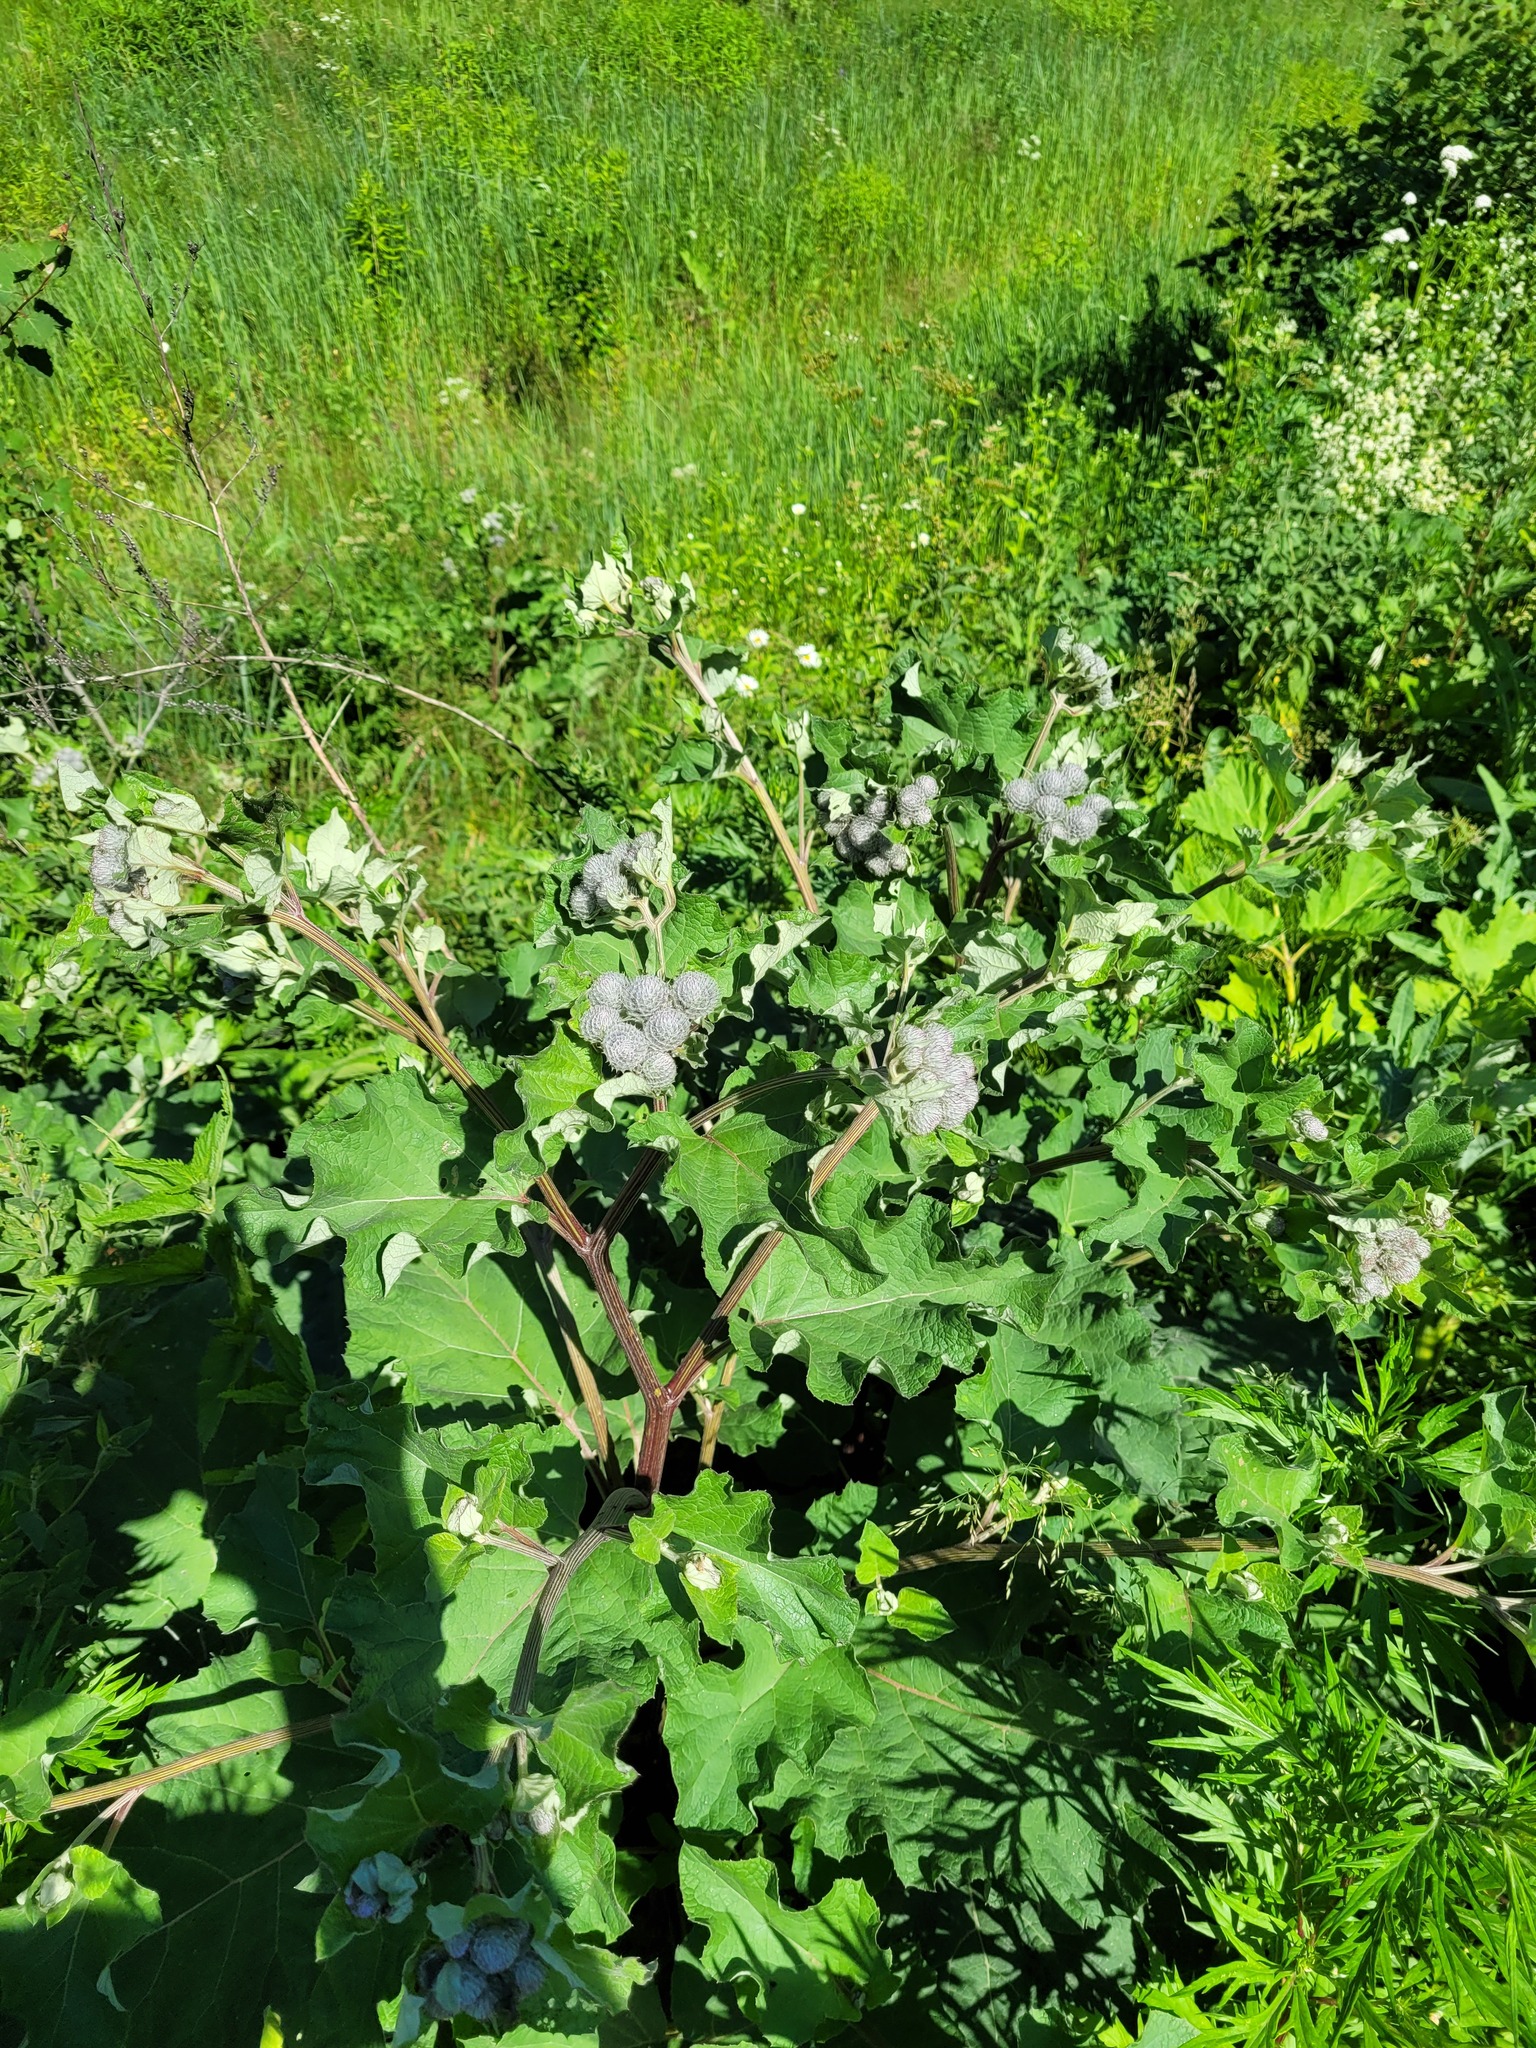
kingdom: Plantae
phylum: Tracheophyta
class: Magnoliopsida
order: Asterales
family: Asteraceae
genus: Arctium
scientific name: Arctium tomentosum
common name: Woolly burdock
